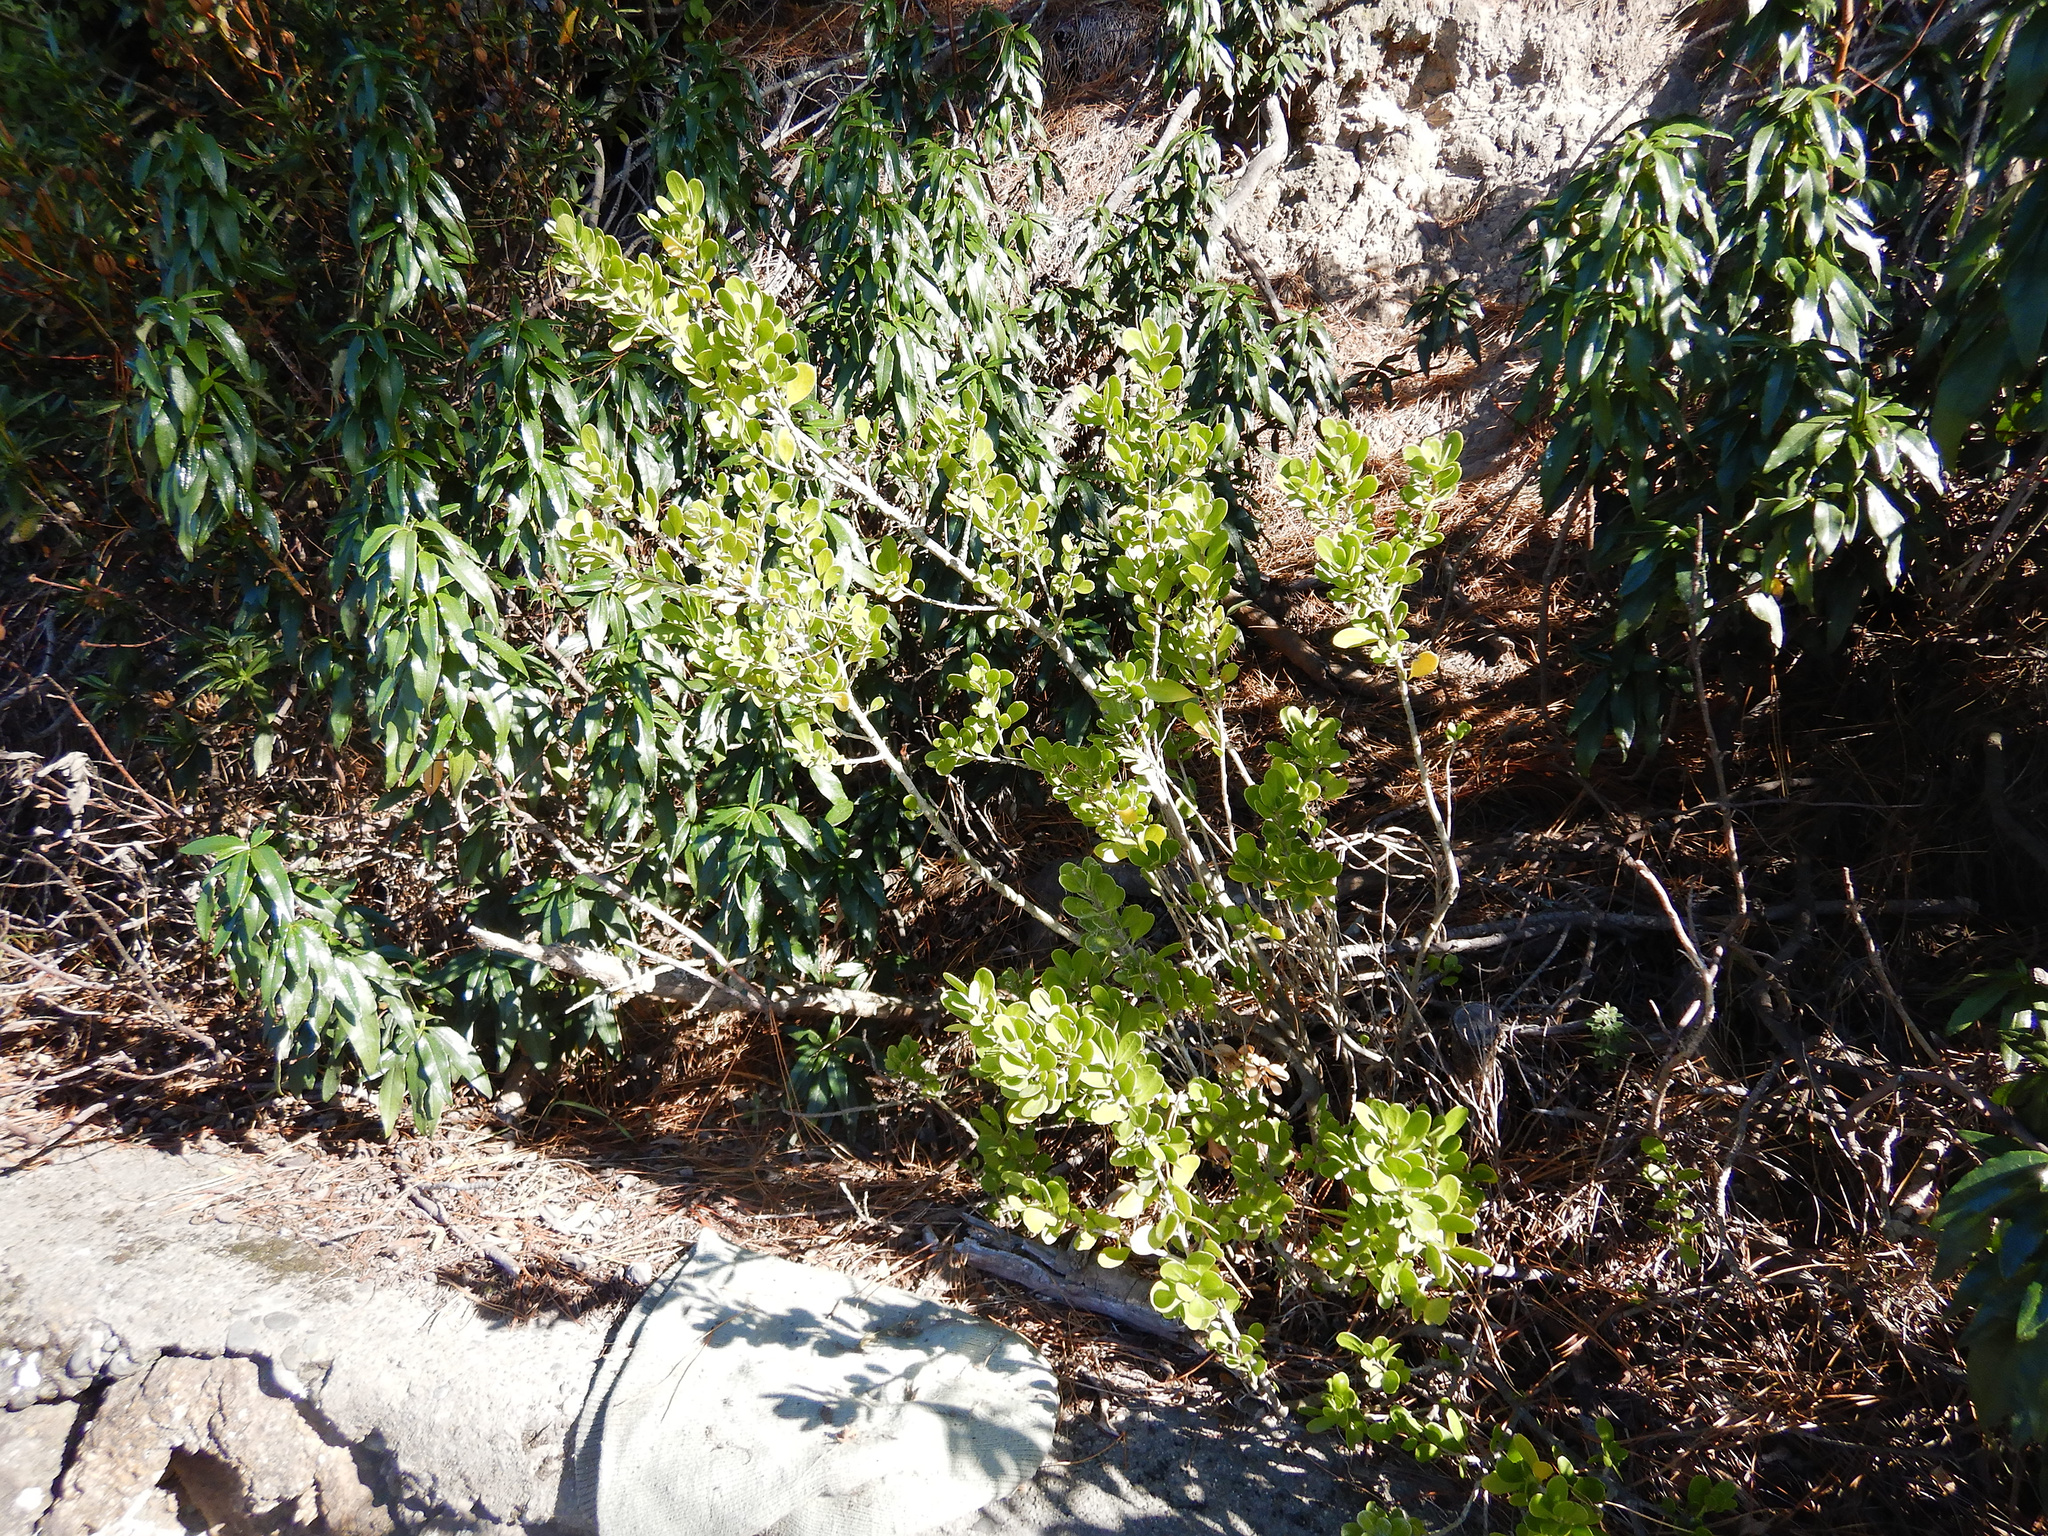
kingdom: Plantae
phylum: Tracheophyta
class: Magnoliopsida
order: Malpighiales
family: Violaceae
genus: Melicytus
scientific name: Melicytus obovatus
